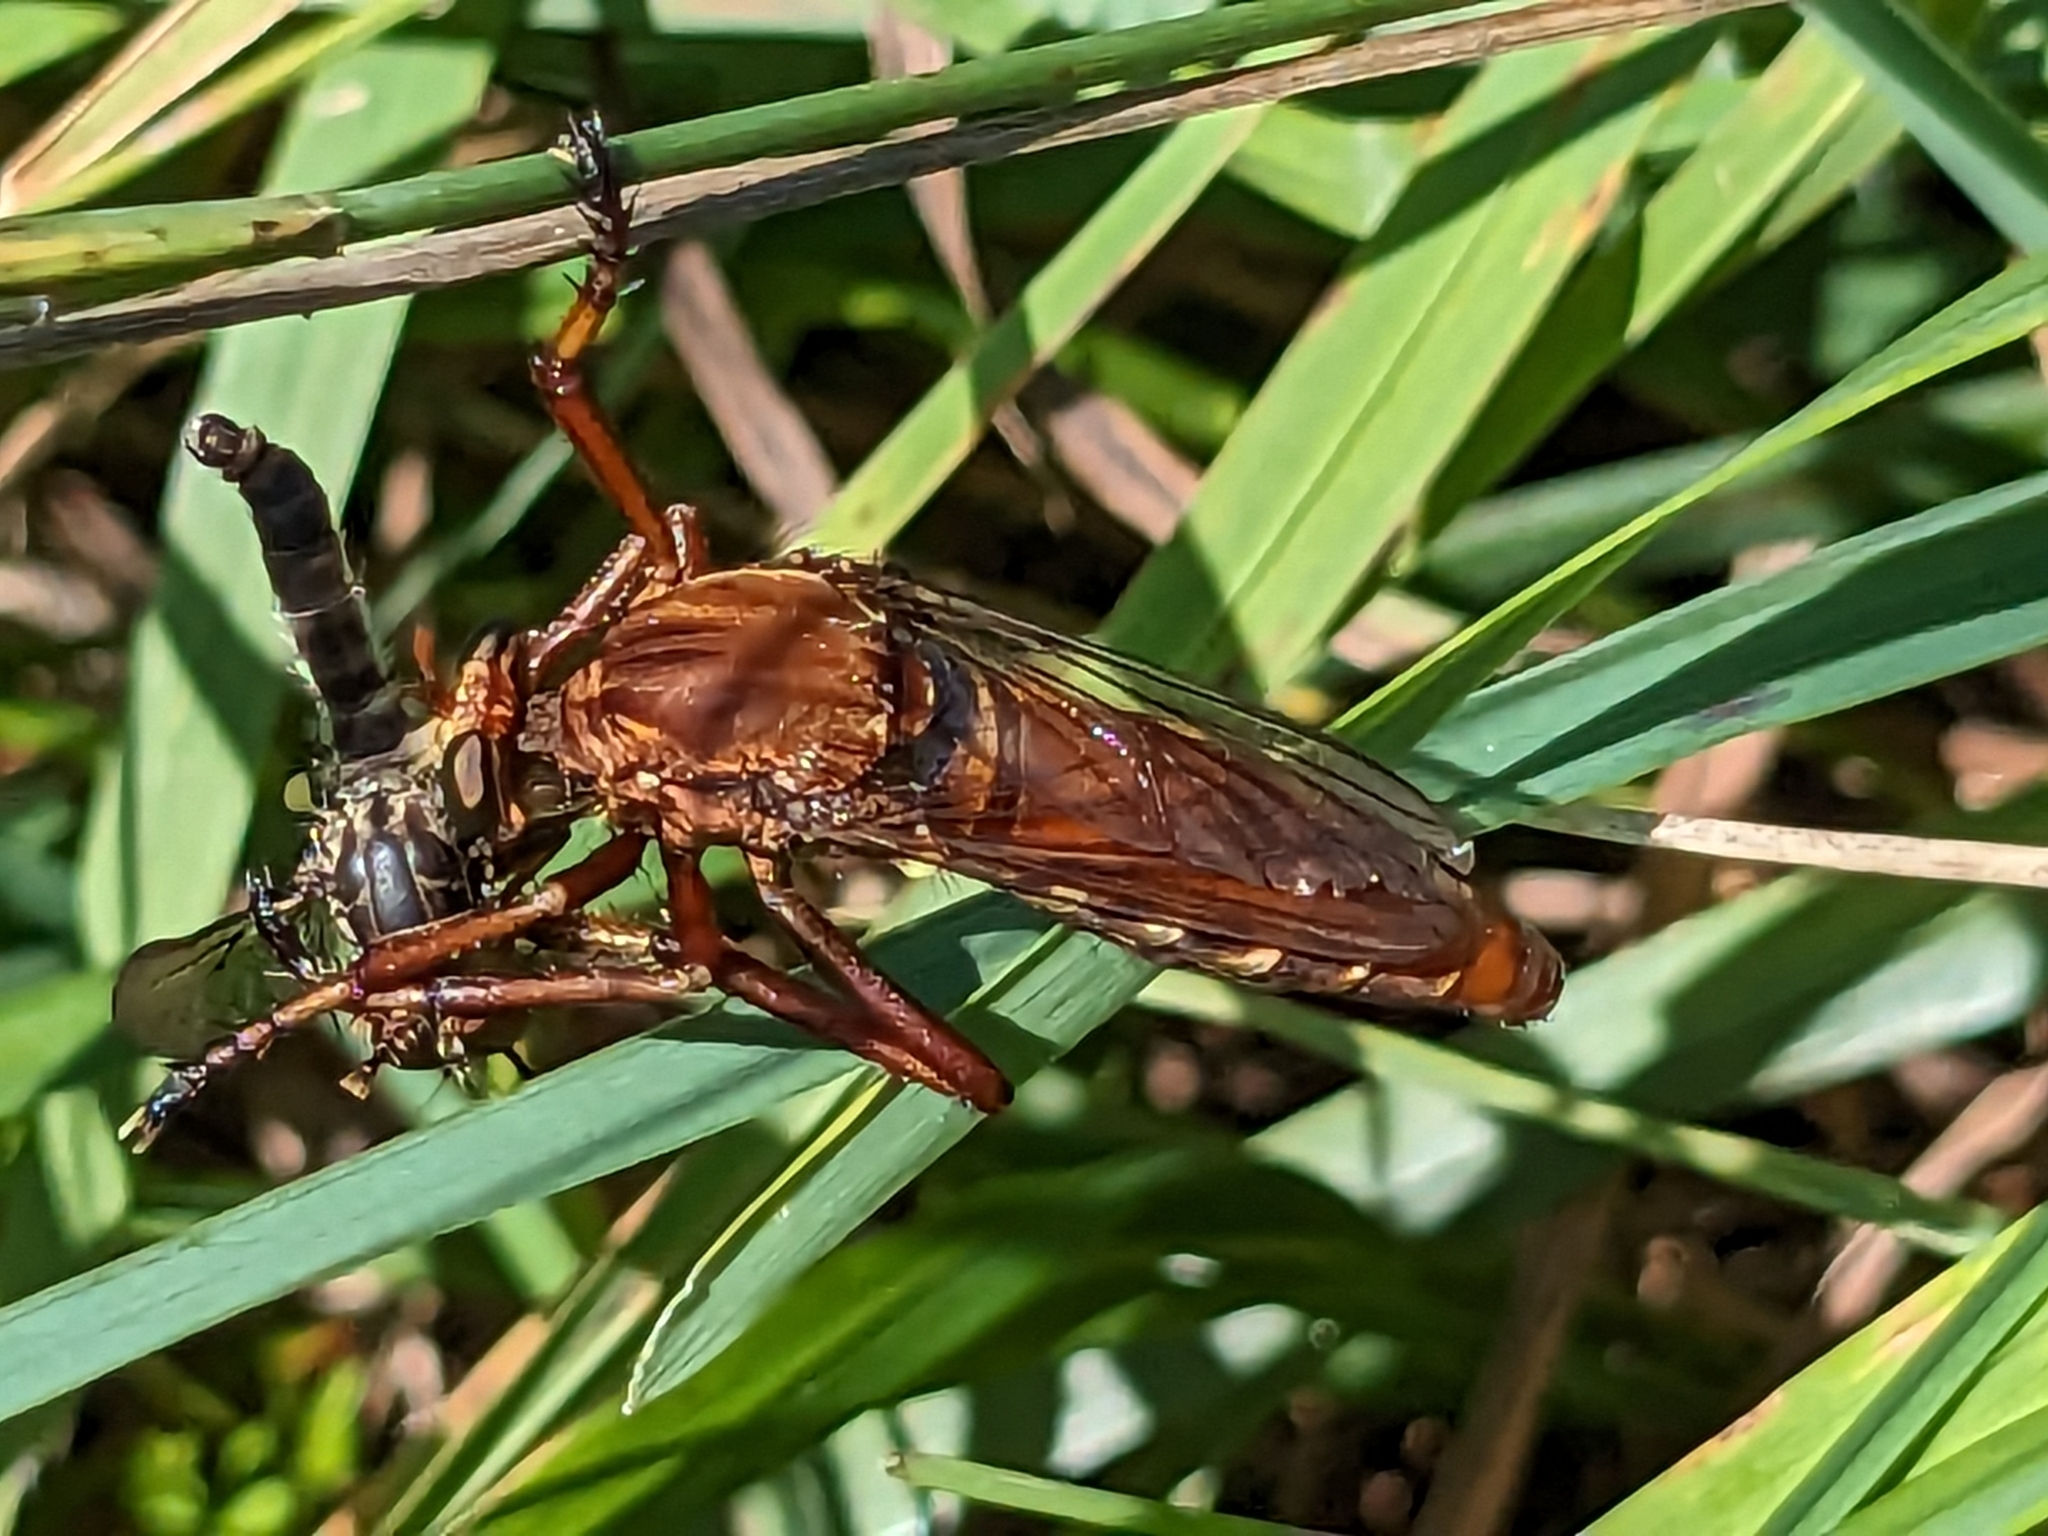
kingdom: Animalia
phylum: Arthropoda
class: Insecta
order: Diptera
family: Asilidae
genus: Diogmites
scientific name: Diogmites basalis
